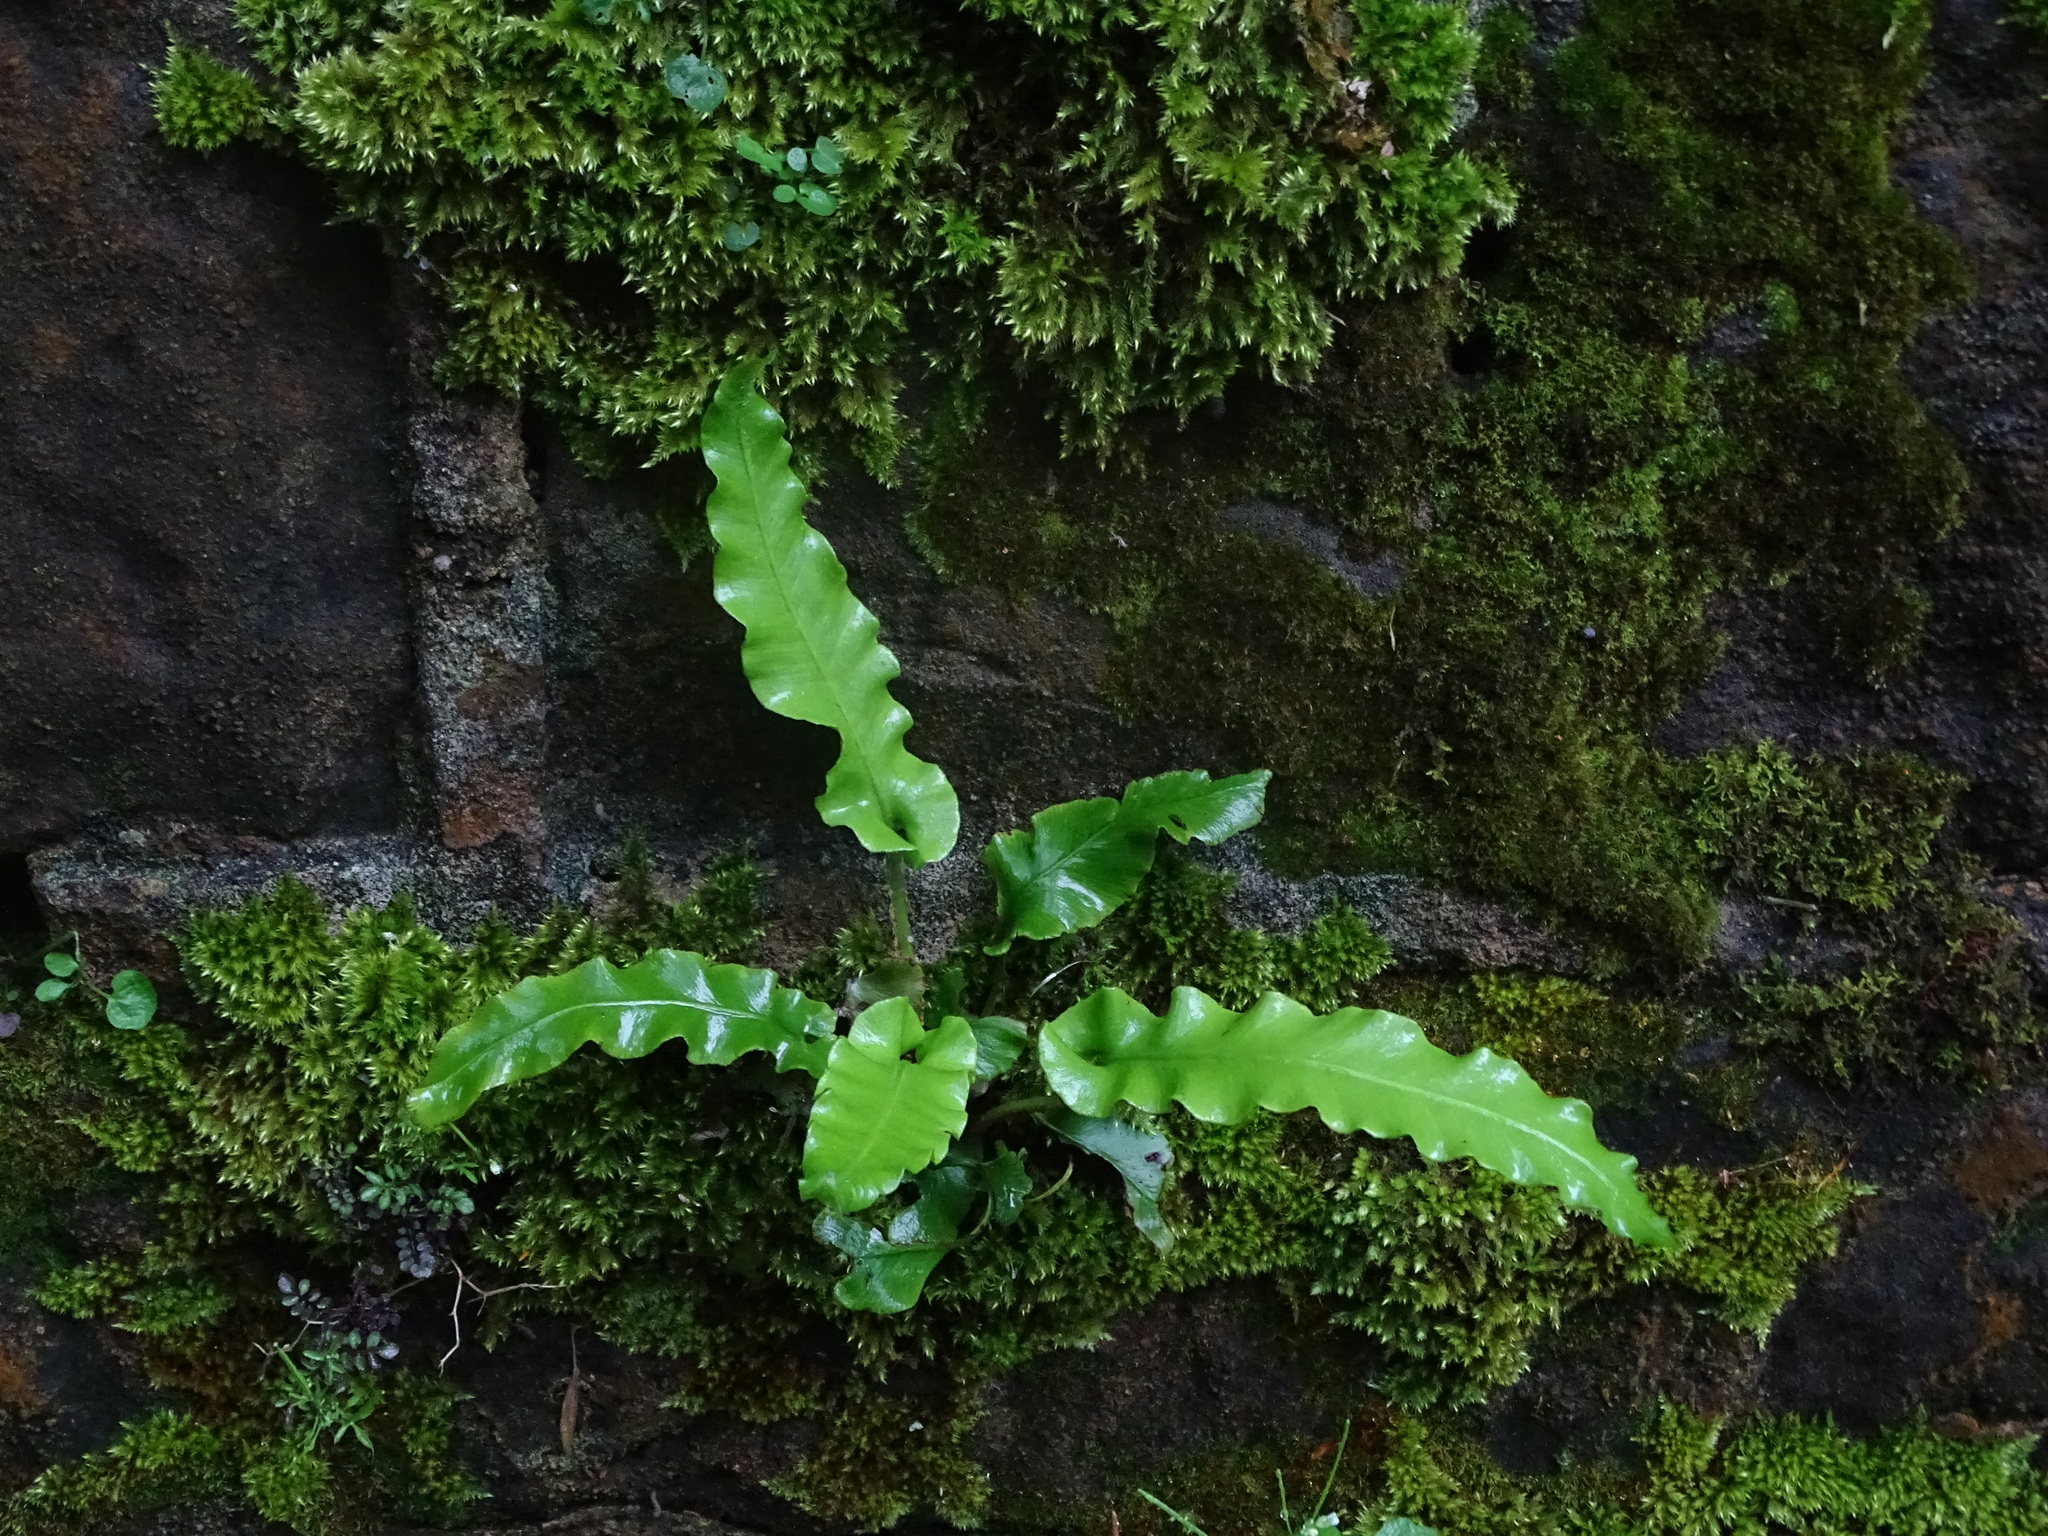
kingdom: Plantae
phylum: Tracheophyta
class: Polypodiopsida
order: Polypodiales
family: Aspleniaceae
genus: Asplenium
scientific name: Asplenium scolopendrium
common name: Hart's-tongue fern
